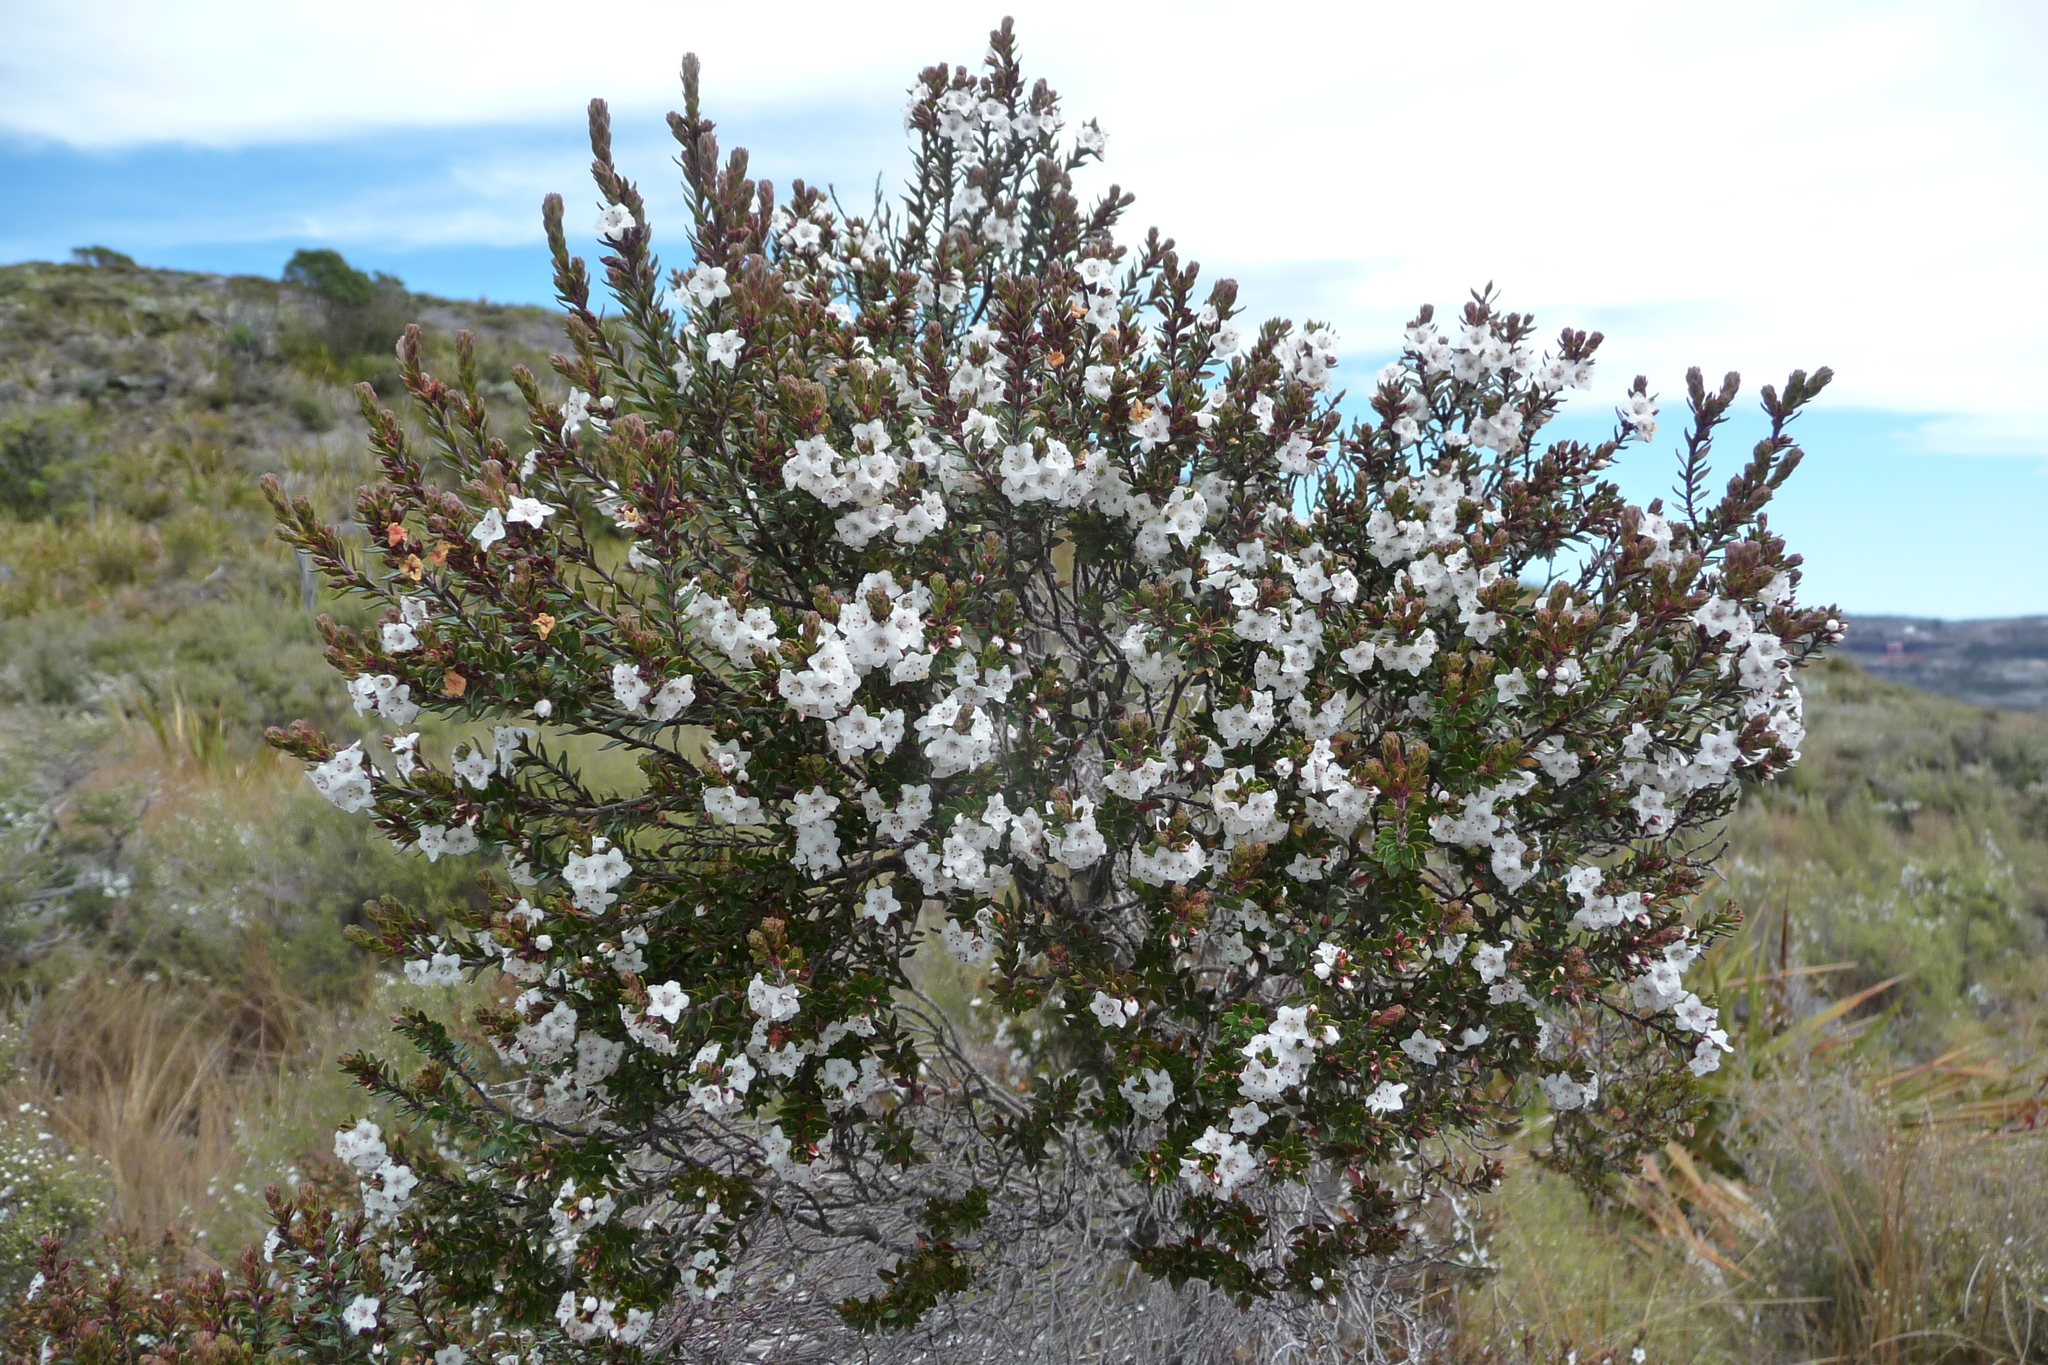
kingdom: Plantae
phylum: Tracheophyta
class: Magnoliopsida
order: Ericales
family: Ericaceae
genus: Epacris
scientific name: Epacris pauciflora
